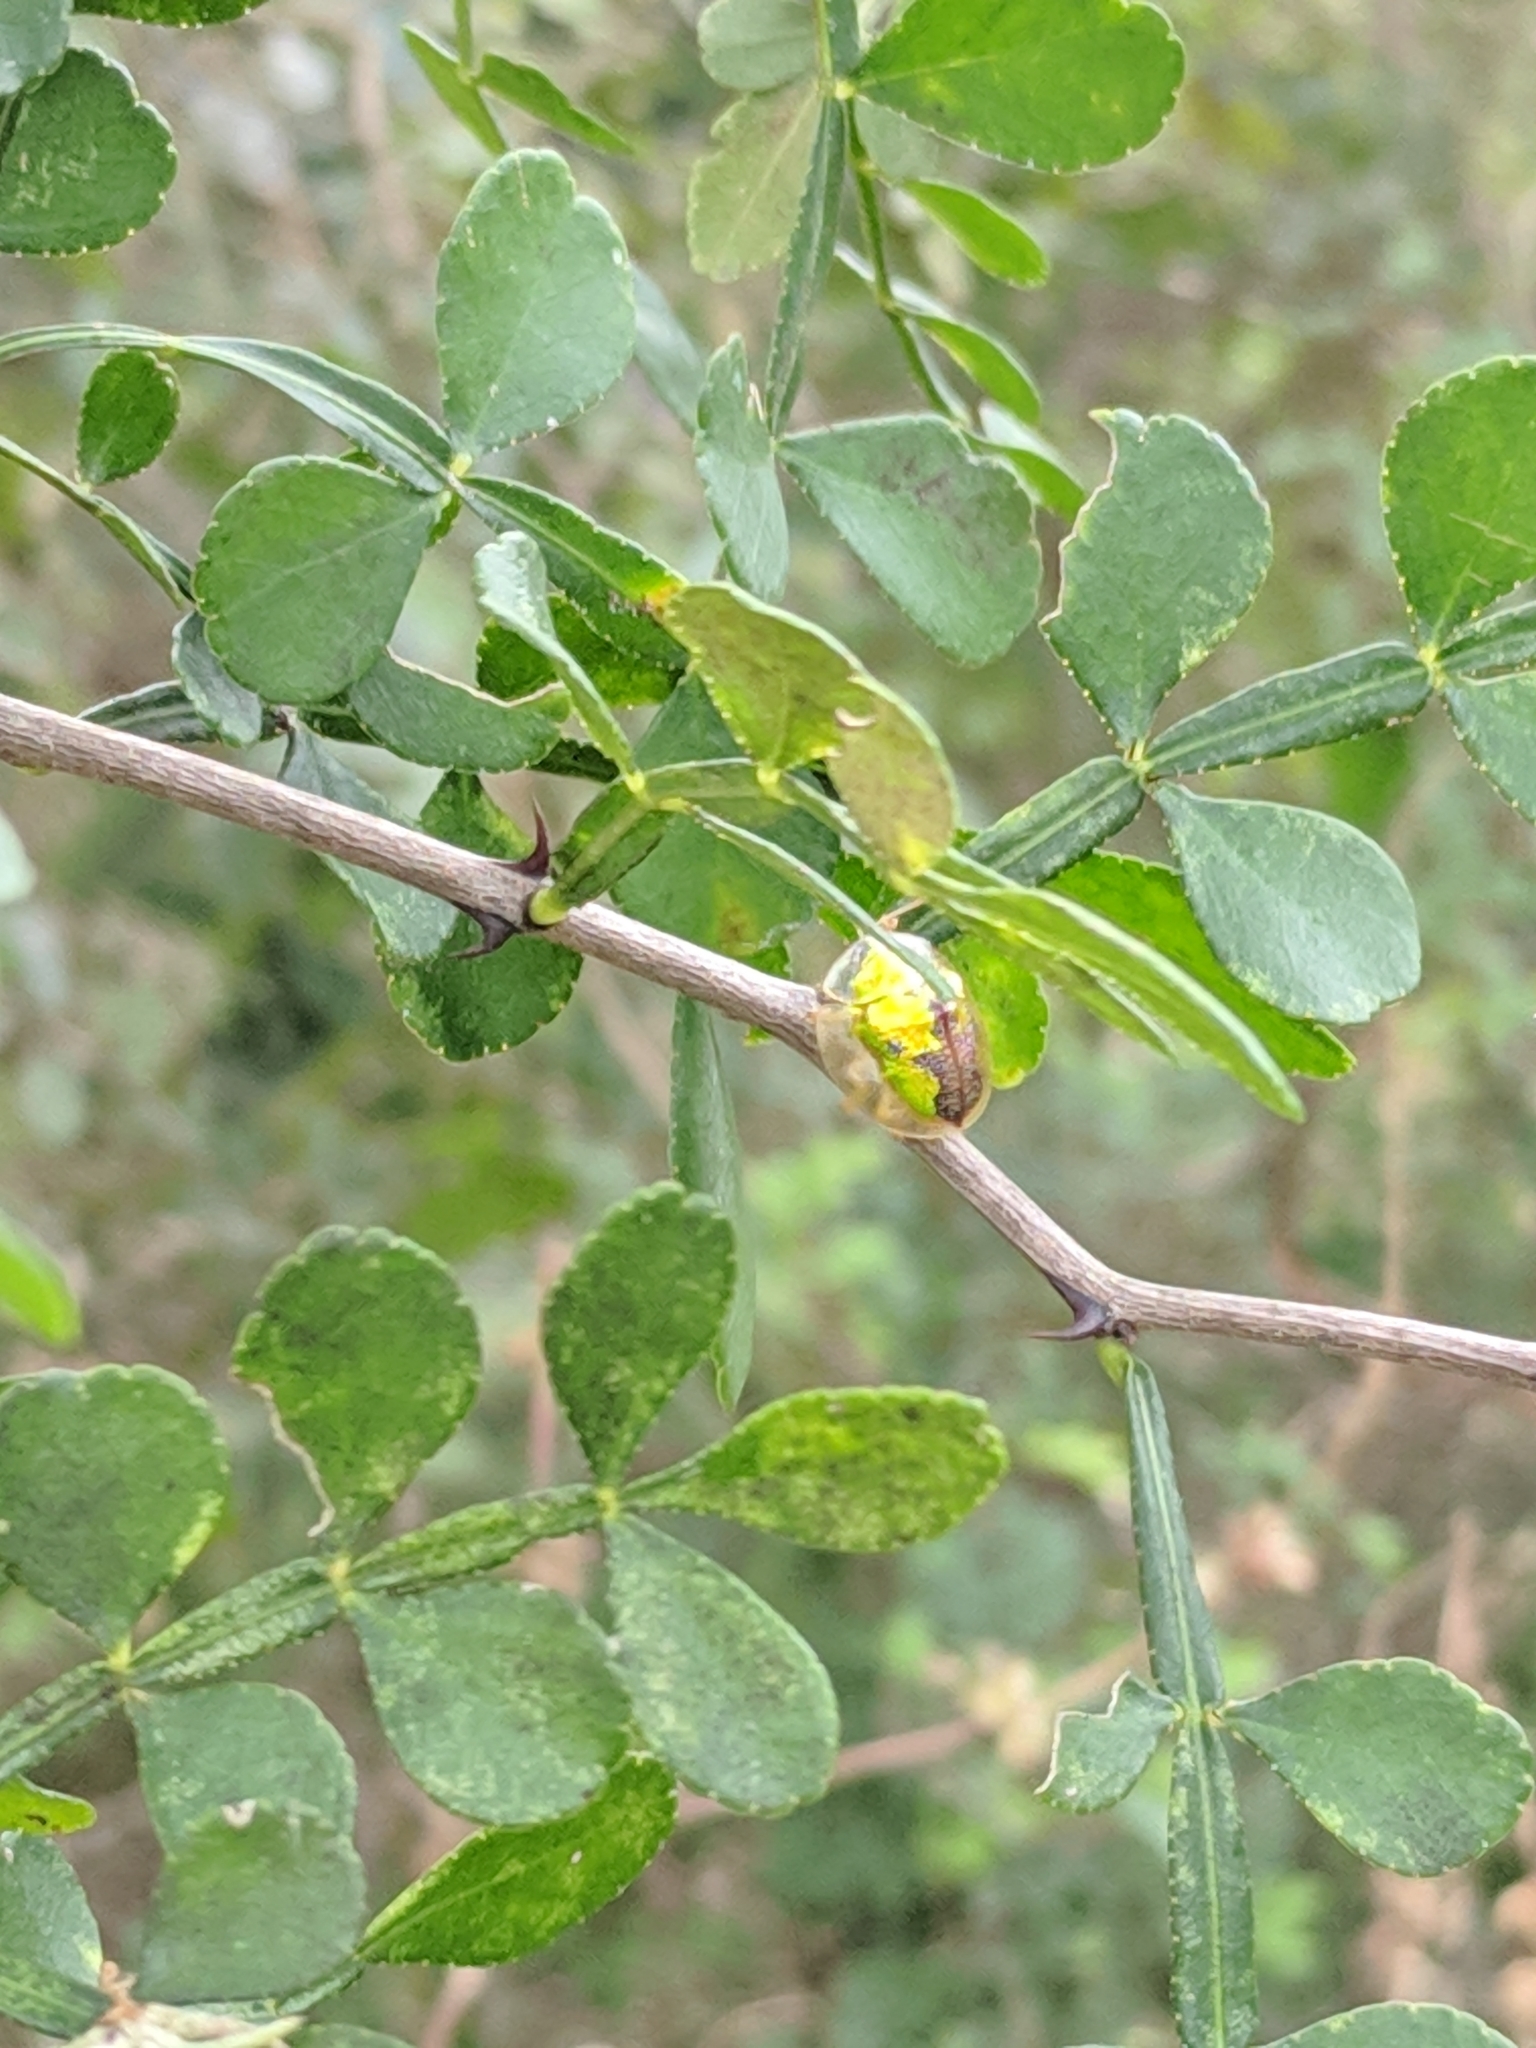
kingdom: Animalia
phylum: Arthropoda
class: Insecta
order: Coleoptera
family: Chrysomelidae
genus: Coptocycla
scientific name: Coptocycla texana
